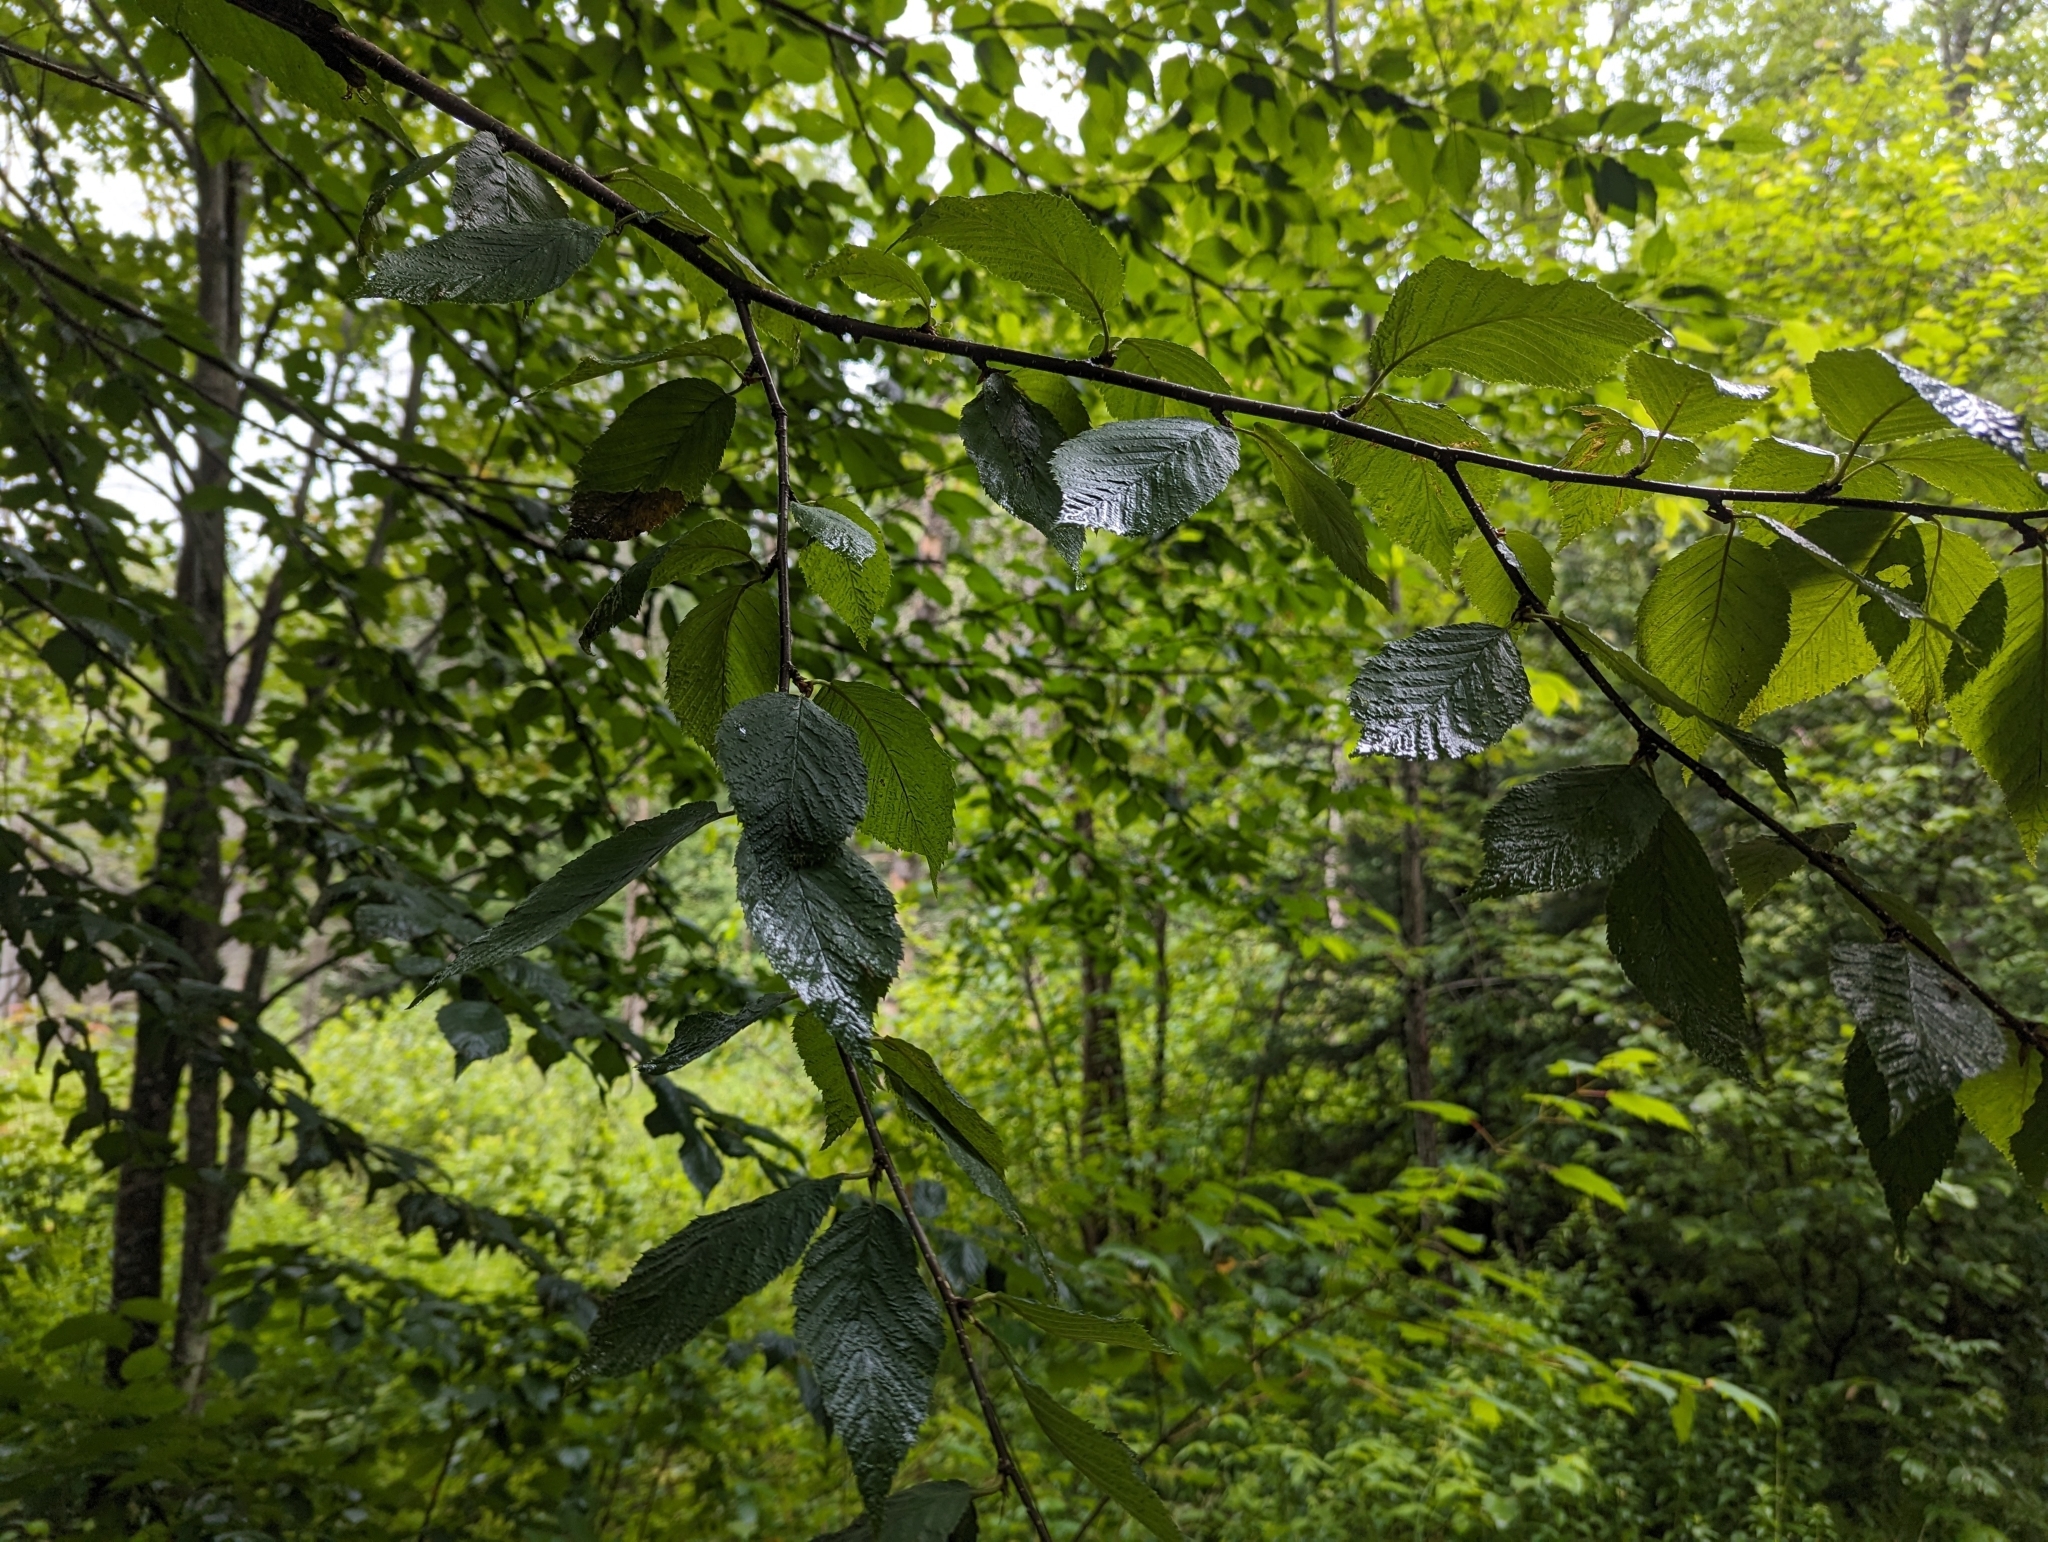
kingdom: Plantae
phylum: Tracheophyta
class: Magnoliopsida
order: Fagales
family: Betulaceae
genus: Betula
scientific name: Betula alleghaniensis
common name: Yellow birch
